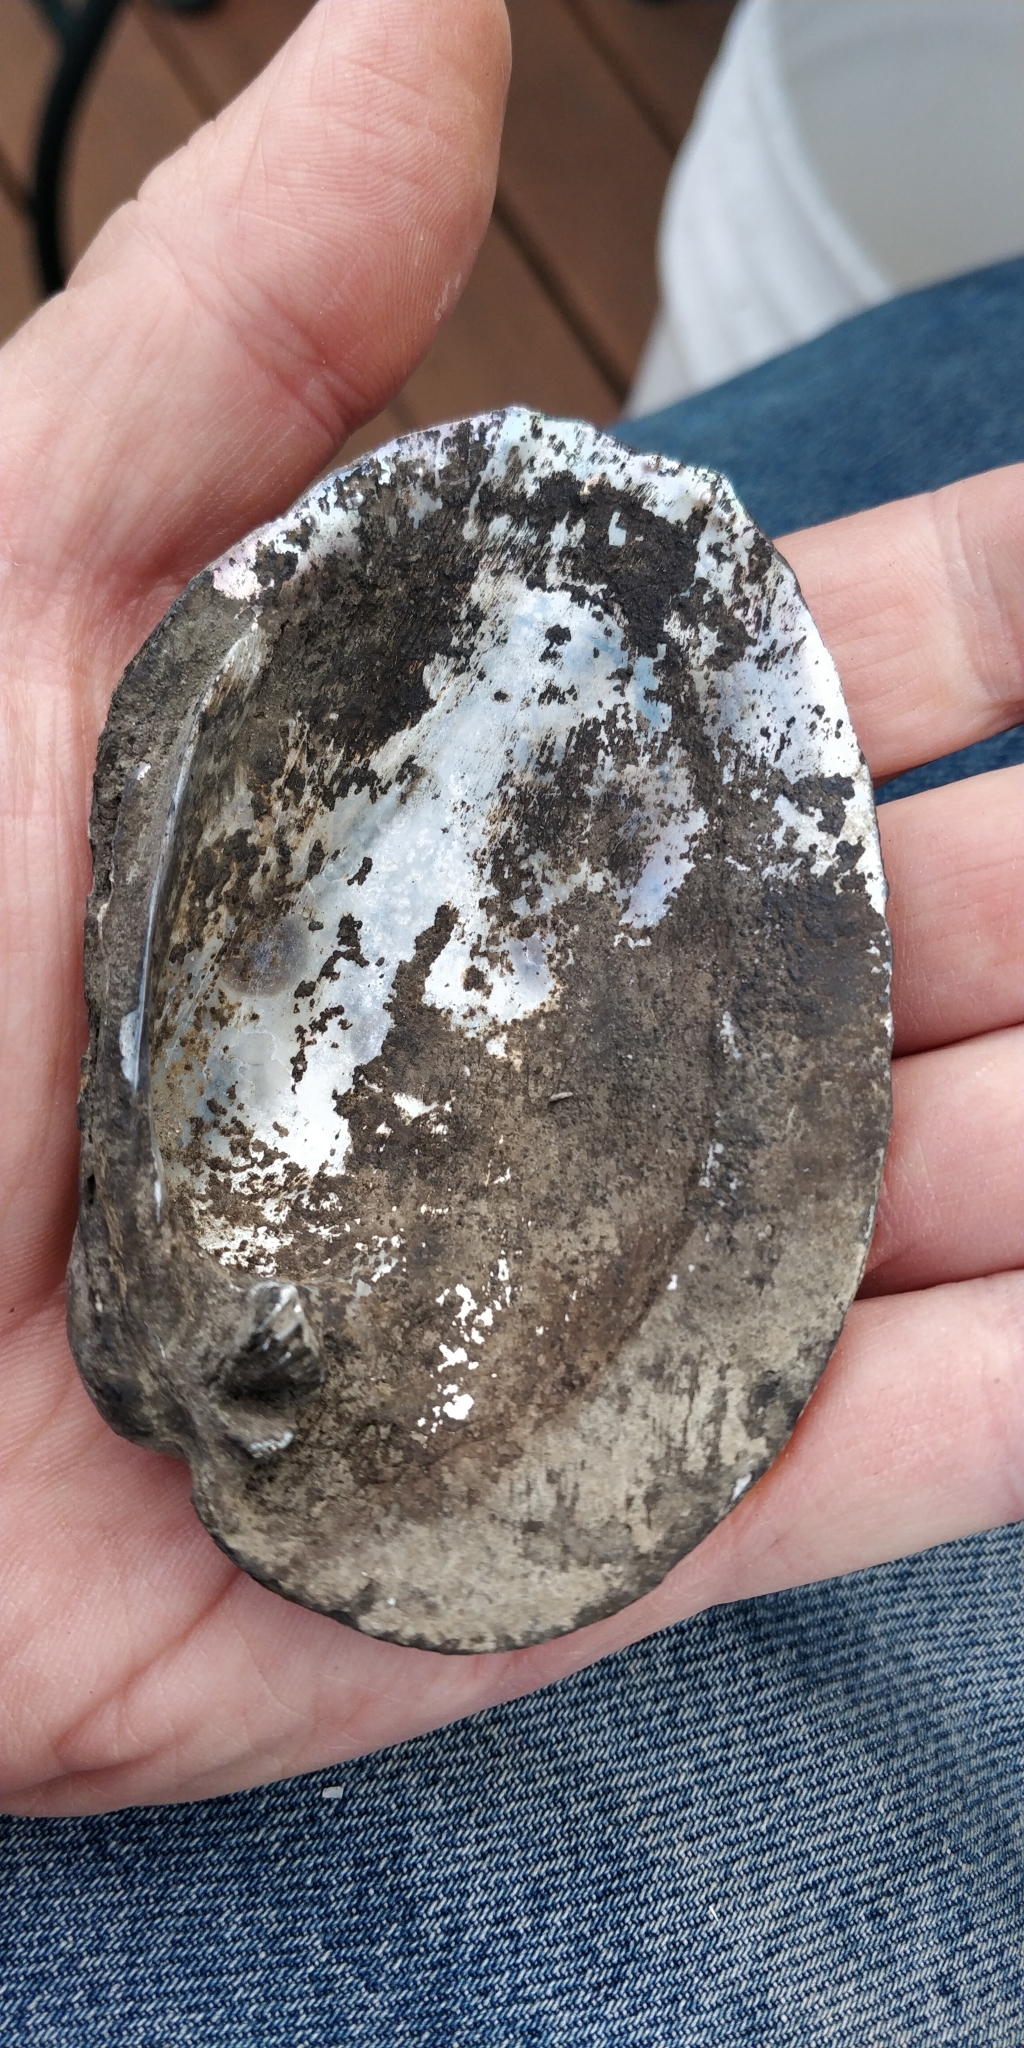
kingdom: Animalia
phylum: Mollusca
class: Bivalvia
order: Unionida
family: Unionidae
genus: Amblema
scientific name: Amblema plicata
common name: Threeridge
